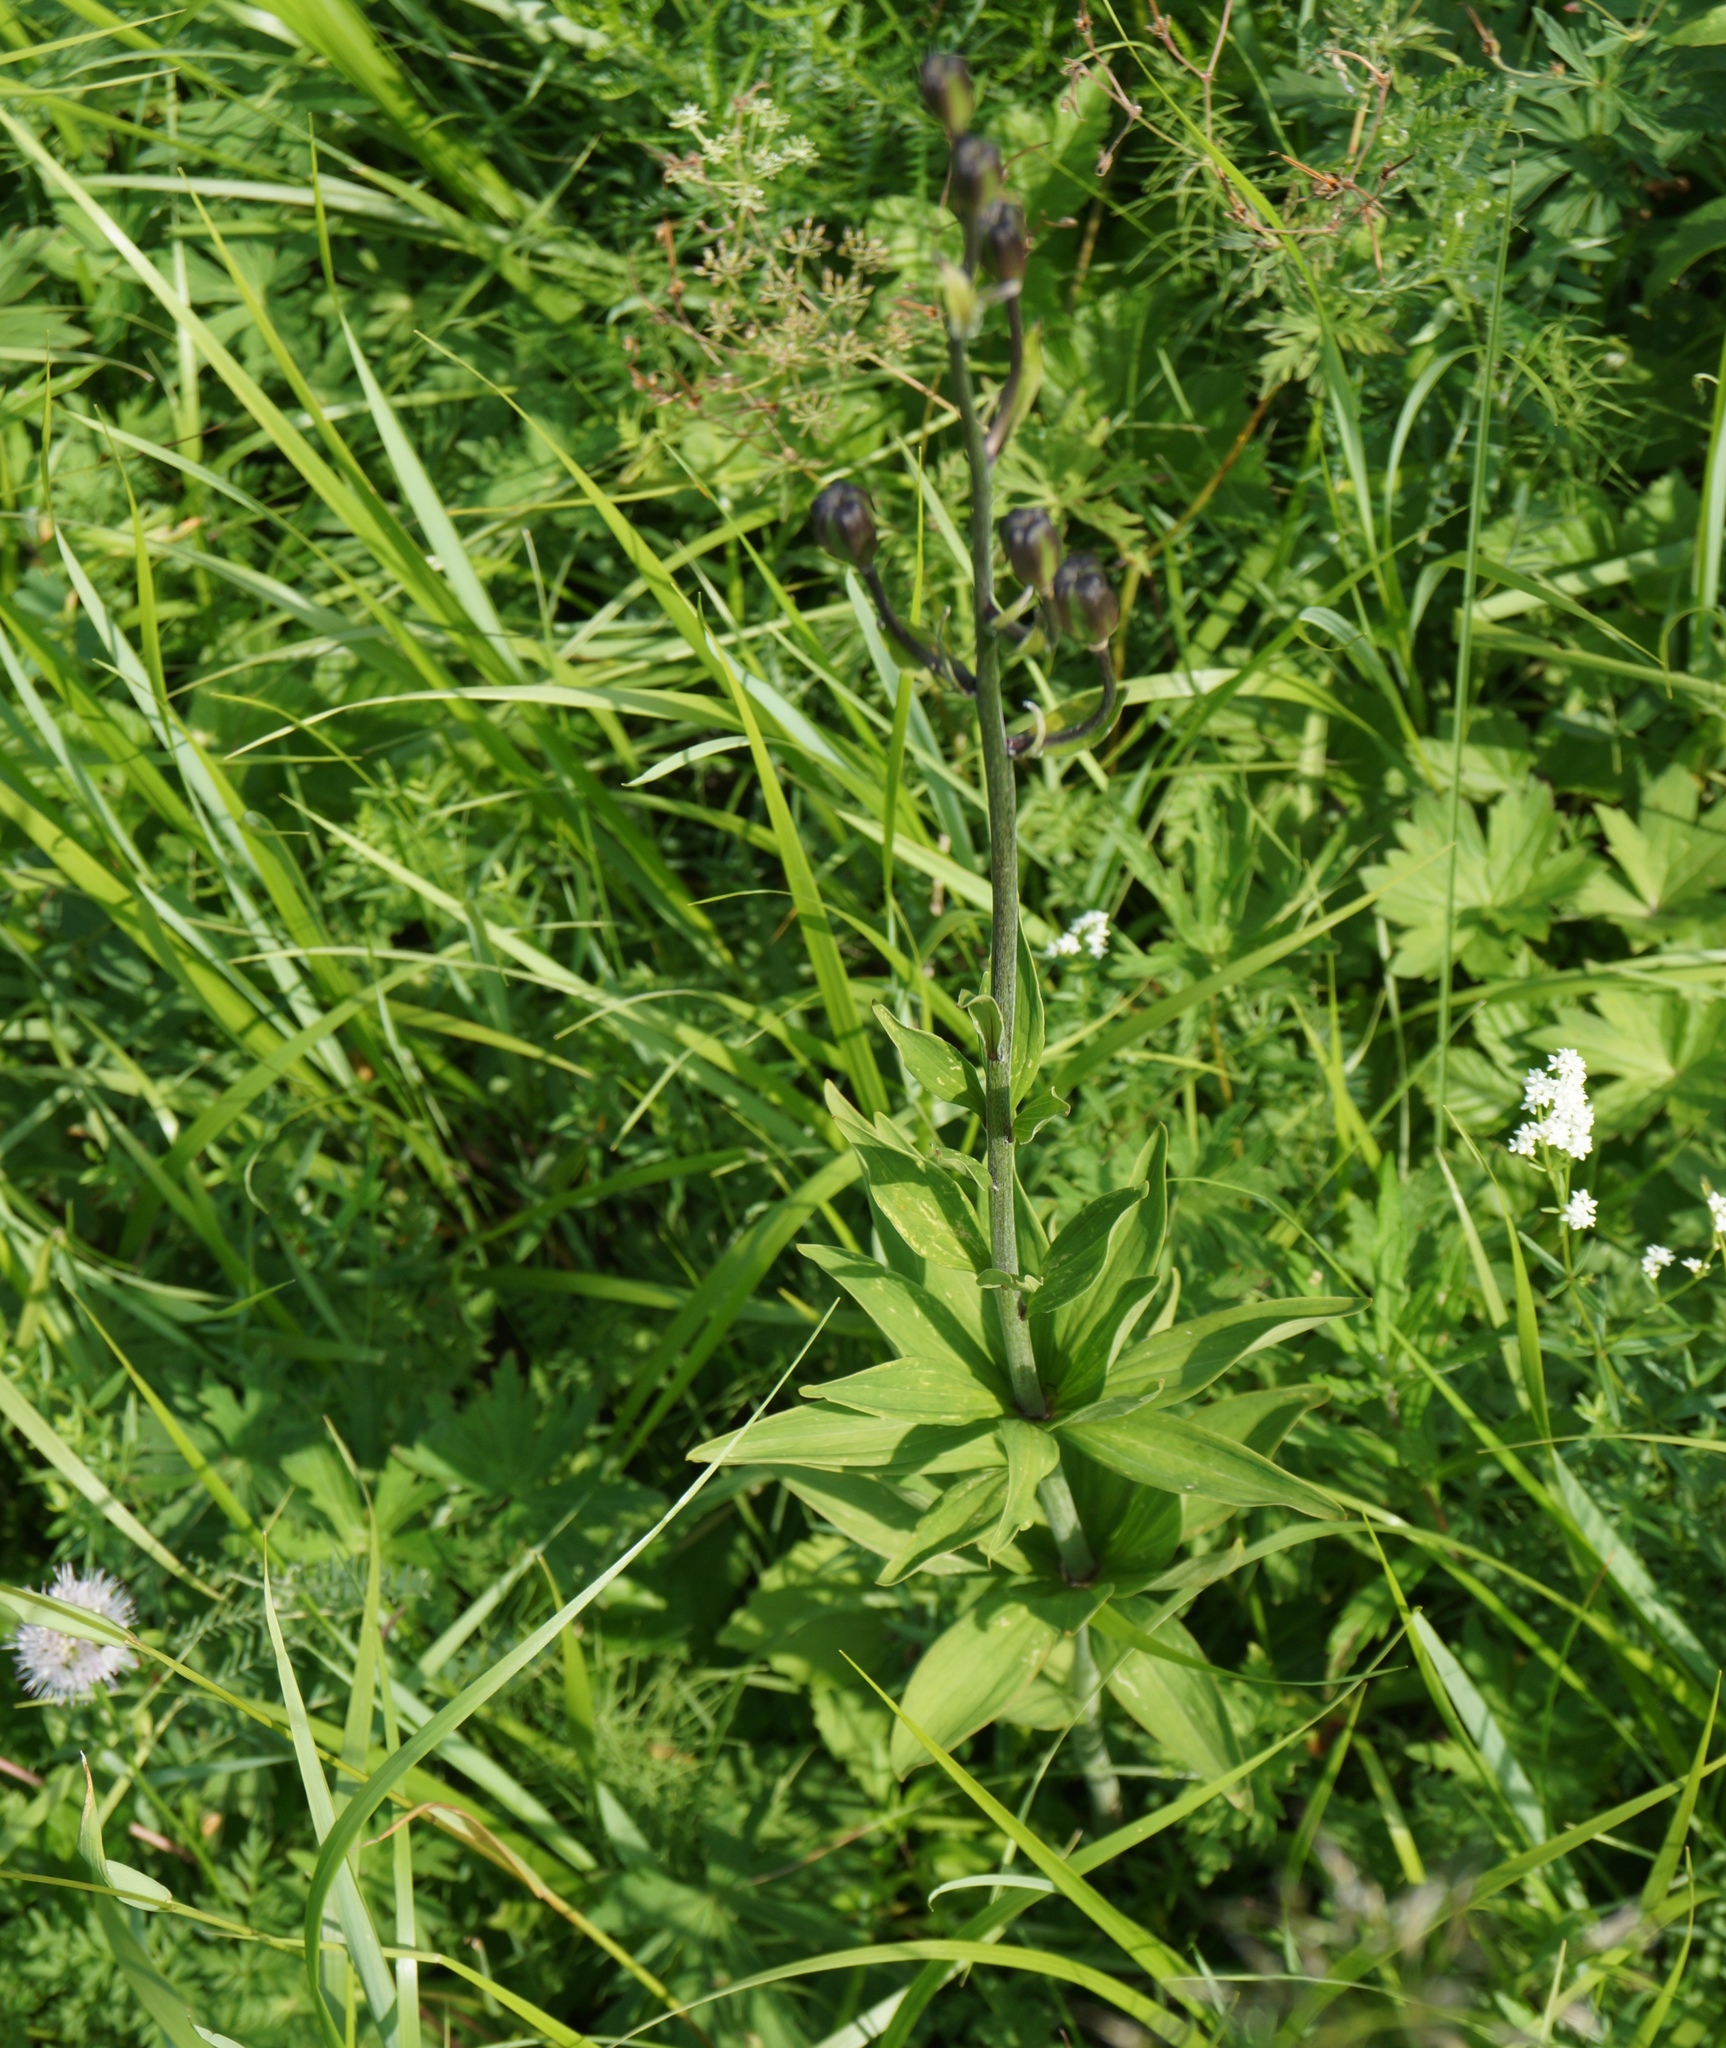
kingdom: Plantae
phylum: Tracheophyta
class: Liliopsida
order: Liliales
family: Liliaceae
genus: Lilium
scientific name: Lilium pumilum
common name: Coral lily
